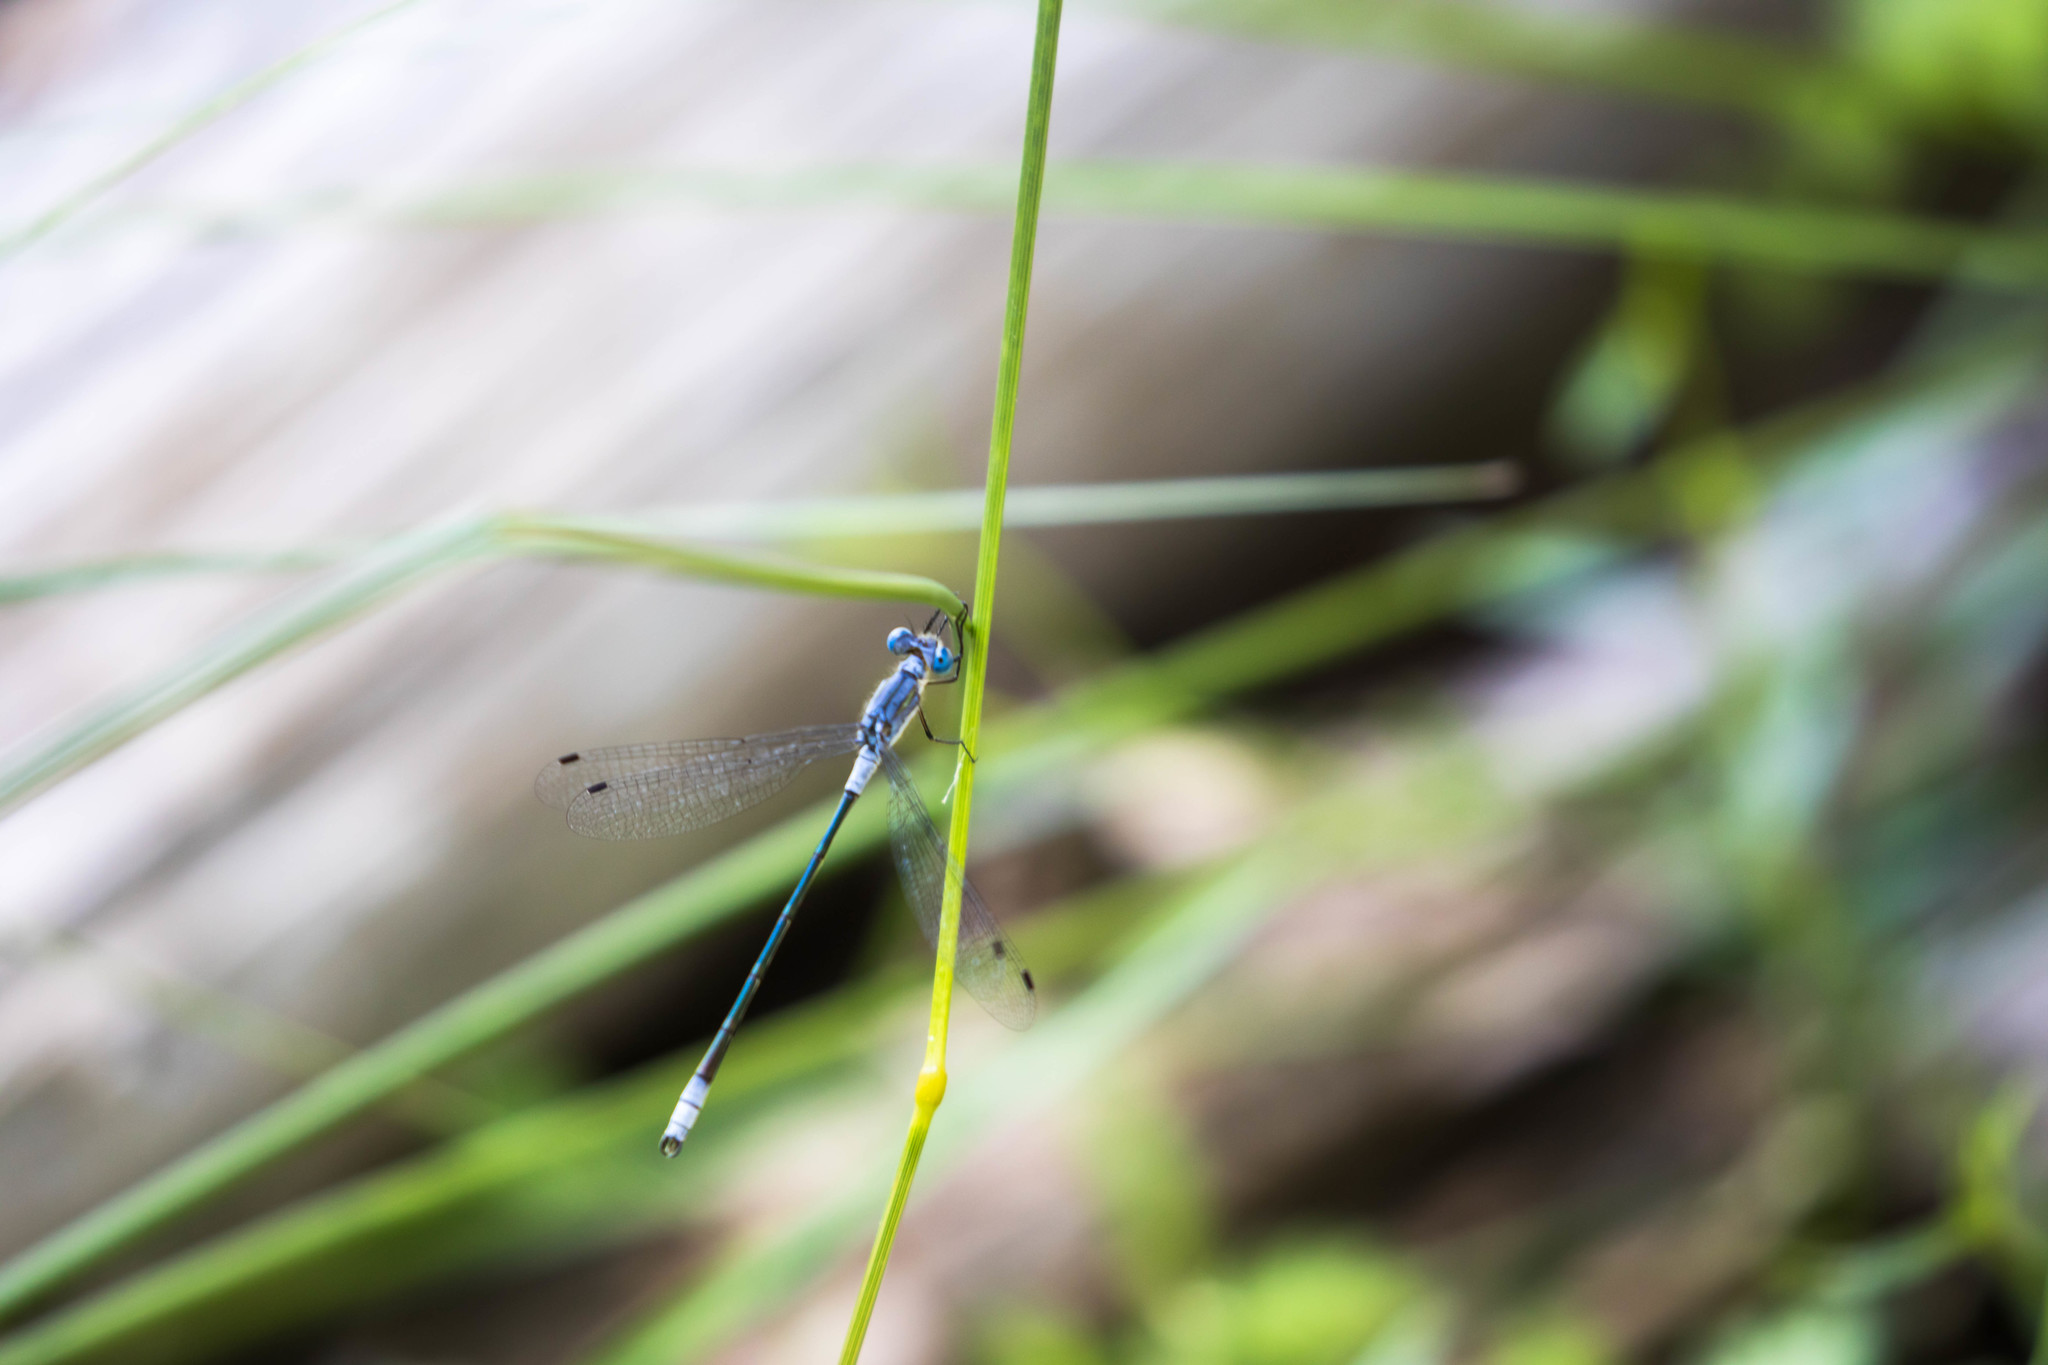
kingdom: Animalia
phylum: Arthropoda
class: Insecta
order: Odonata
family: Lestidae
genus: Lestes
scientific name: Lestes disjunctus
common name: Northern spreadwing
